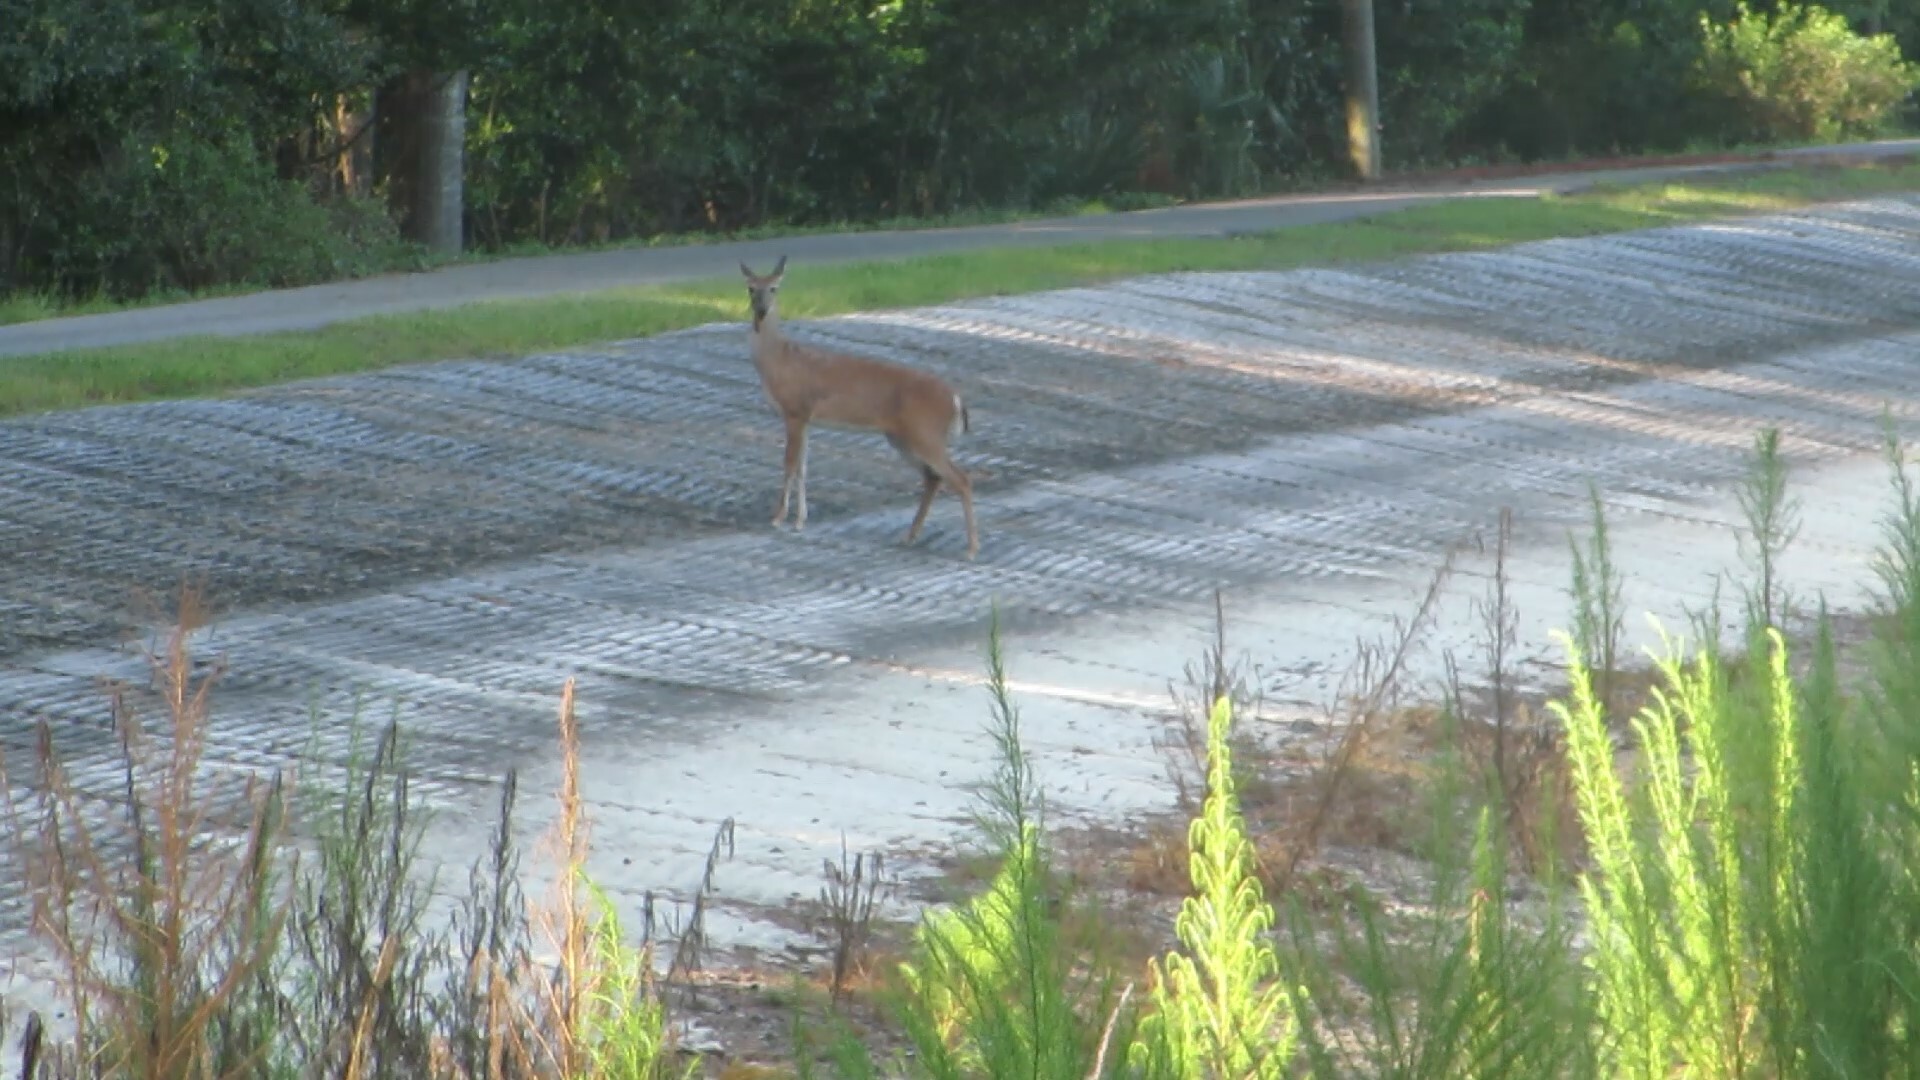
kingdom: Animalia
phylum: Chordata
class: Mammalia
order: Artiodactyla
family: Cervidae
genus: Odocoileus
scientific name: Odocoileus virginianus
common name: White-tailed deer
